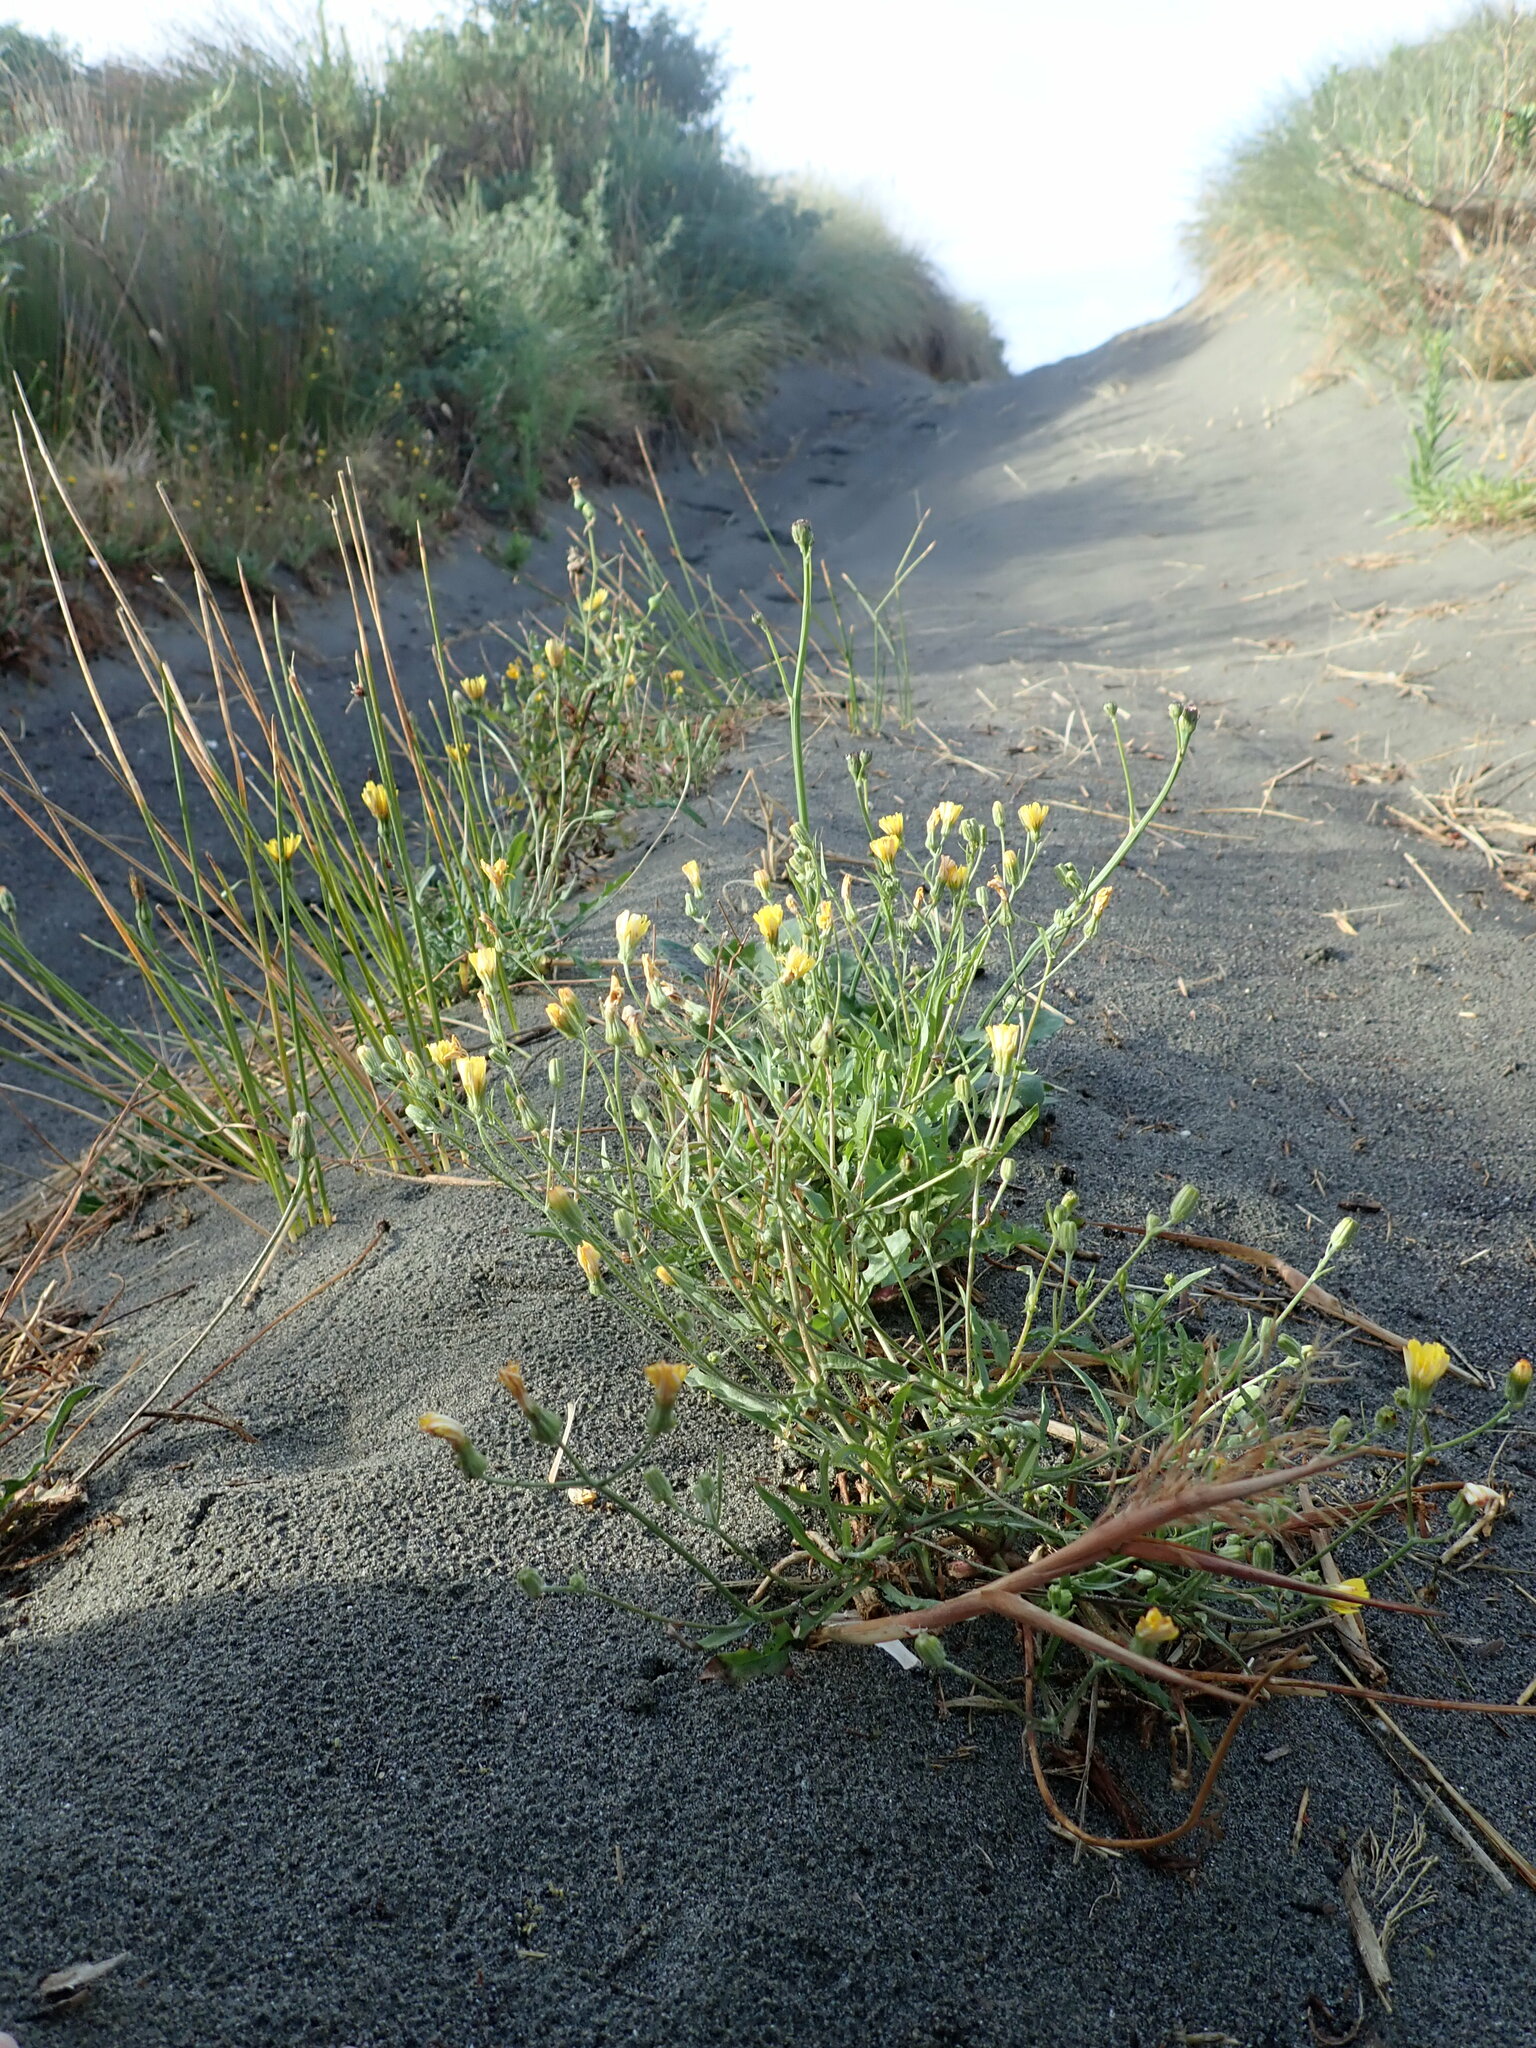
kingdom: Plantae
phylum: Tracheophyta
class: Magnoliopsida
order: Asterales
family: Asteraceae
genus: Crepis
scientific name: Crepis capillaris
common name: Smooth hawksbeard
